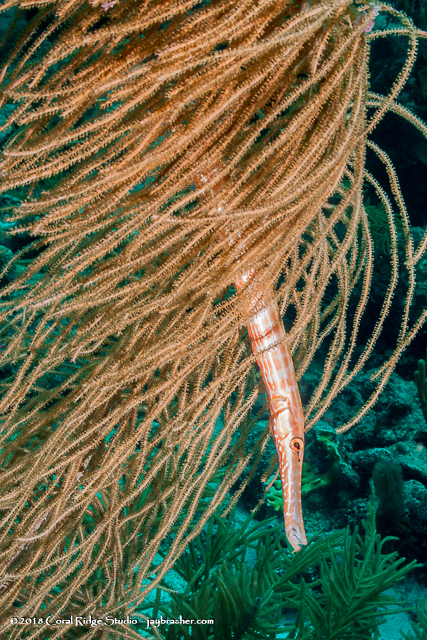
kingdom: Animalia
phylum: Chordata
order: Syngnathiformes
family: Aulostomidae
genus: Aulostomus
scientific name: Aulostomus maculatus
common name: West atlantic trumpetfish
